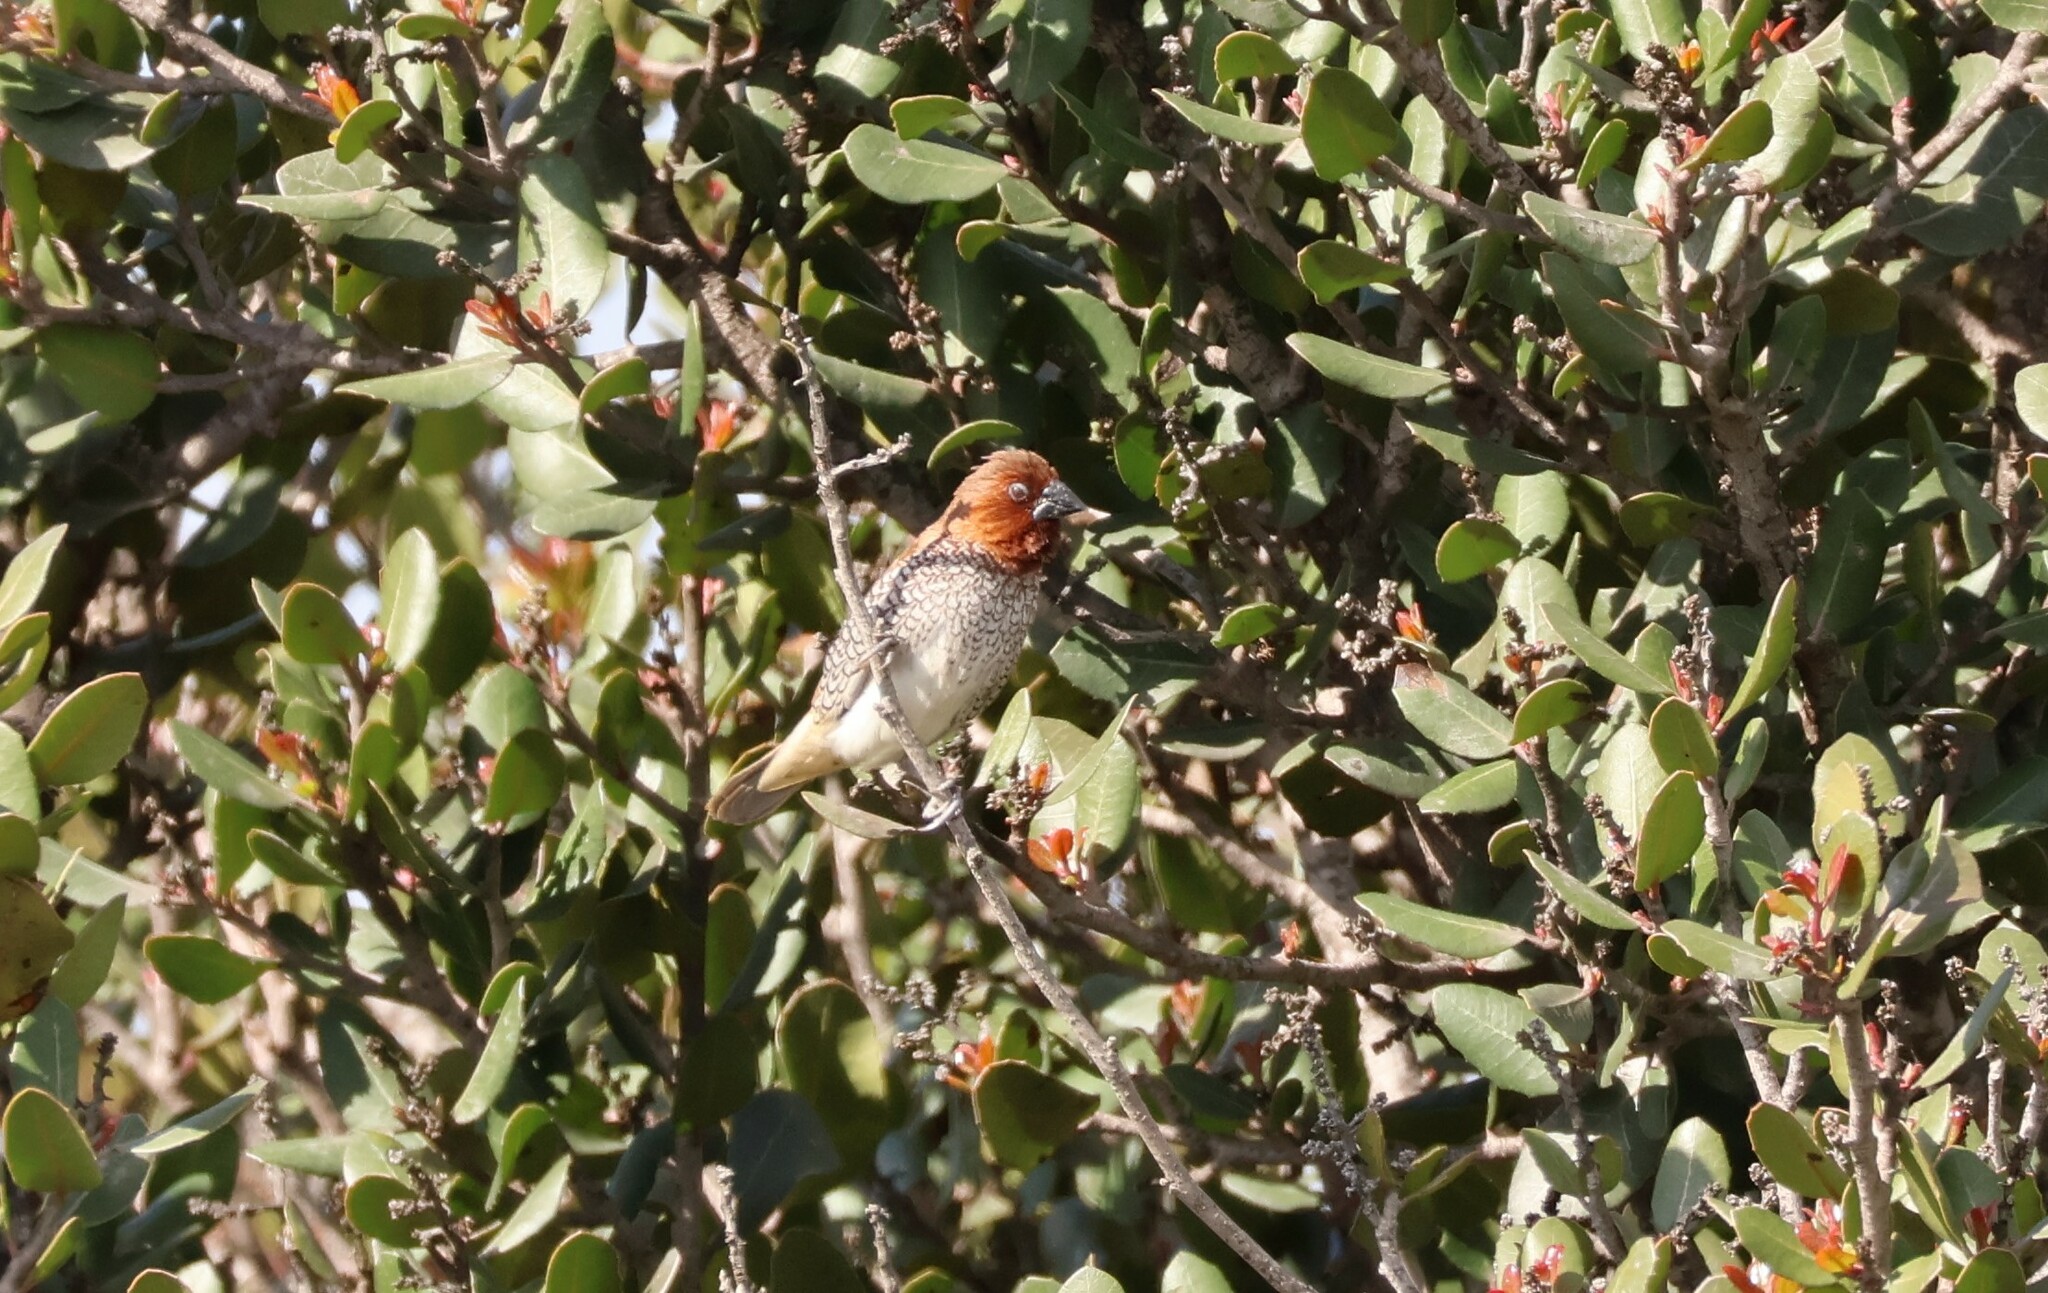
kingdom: Animalia
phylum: Chordata
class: Aves
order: Passeriformes
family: Estrildidae
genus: Lonchura
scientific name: Lonchura punctulata
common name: Scaly-breasted munia
